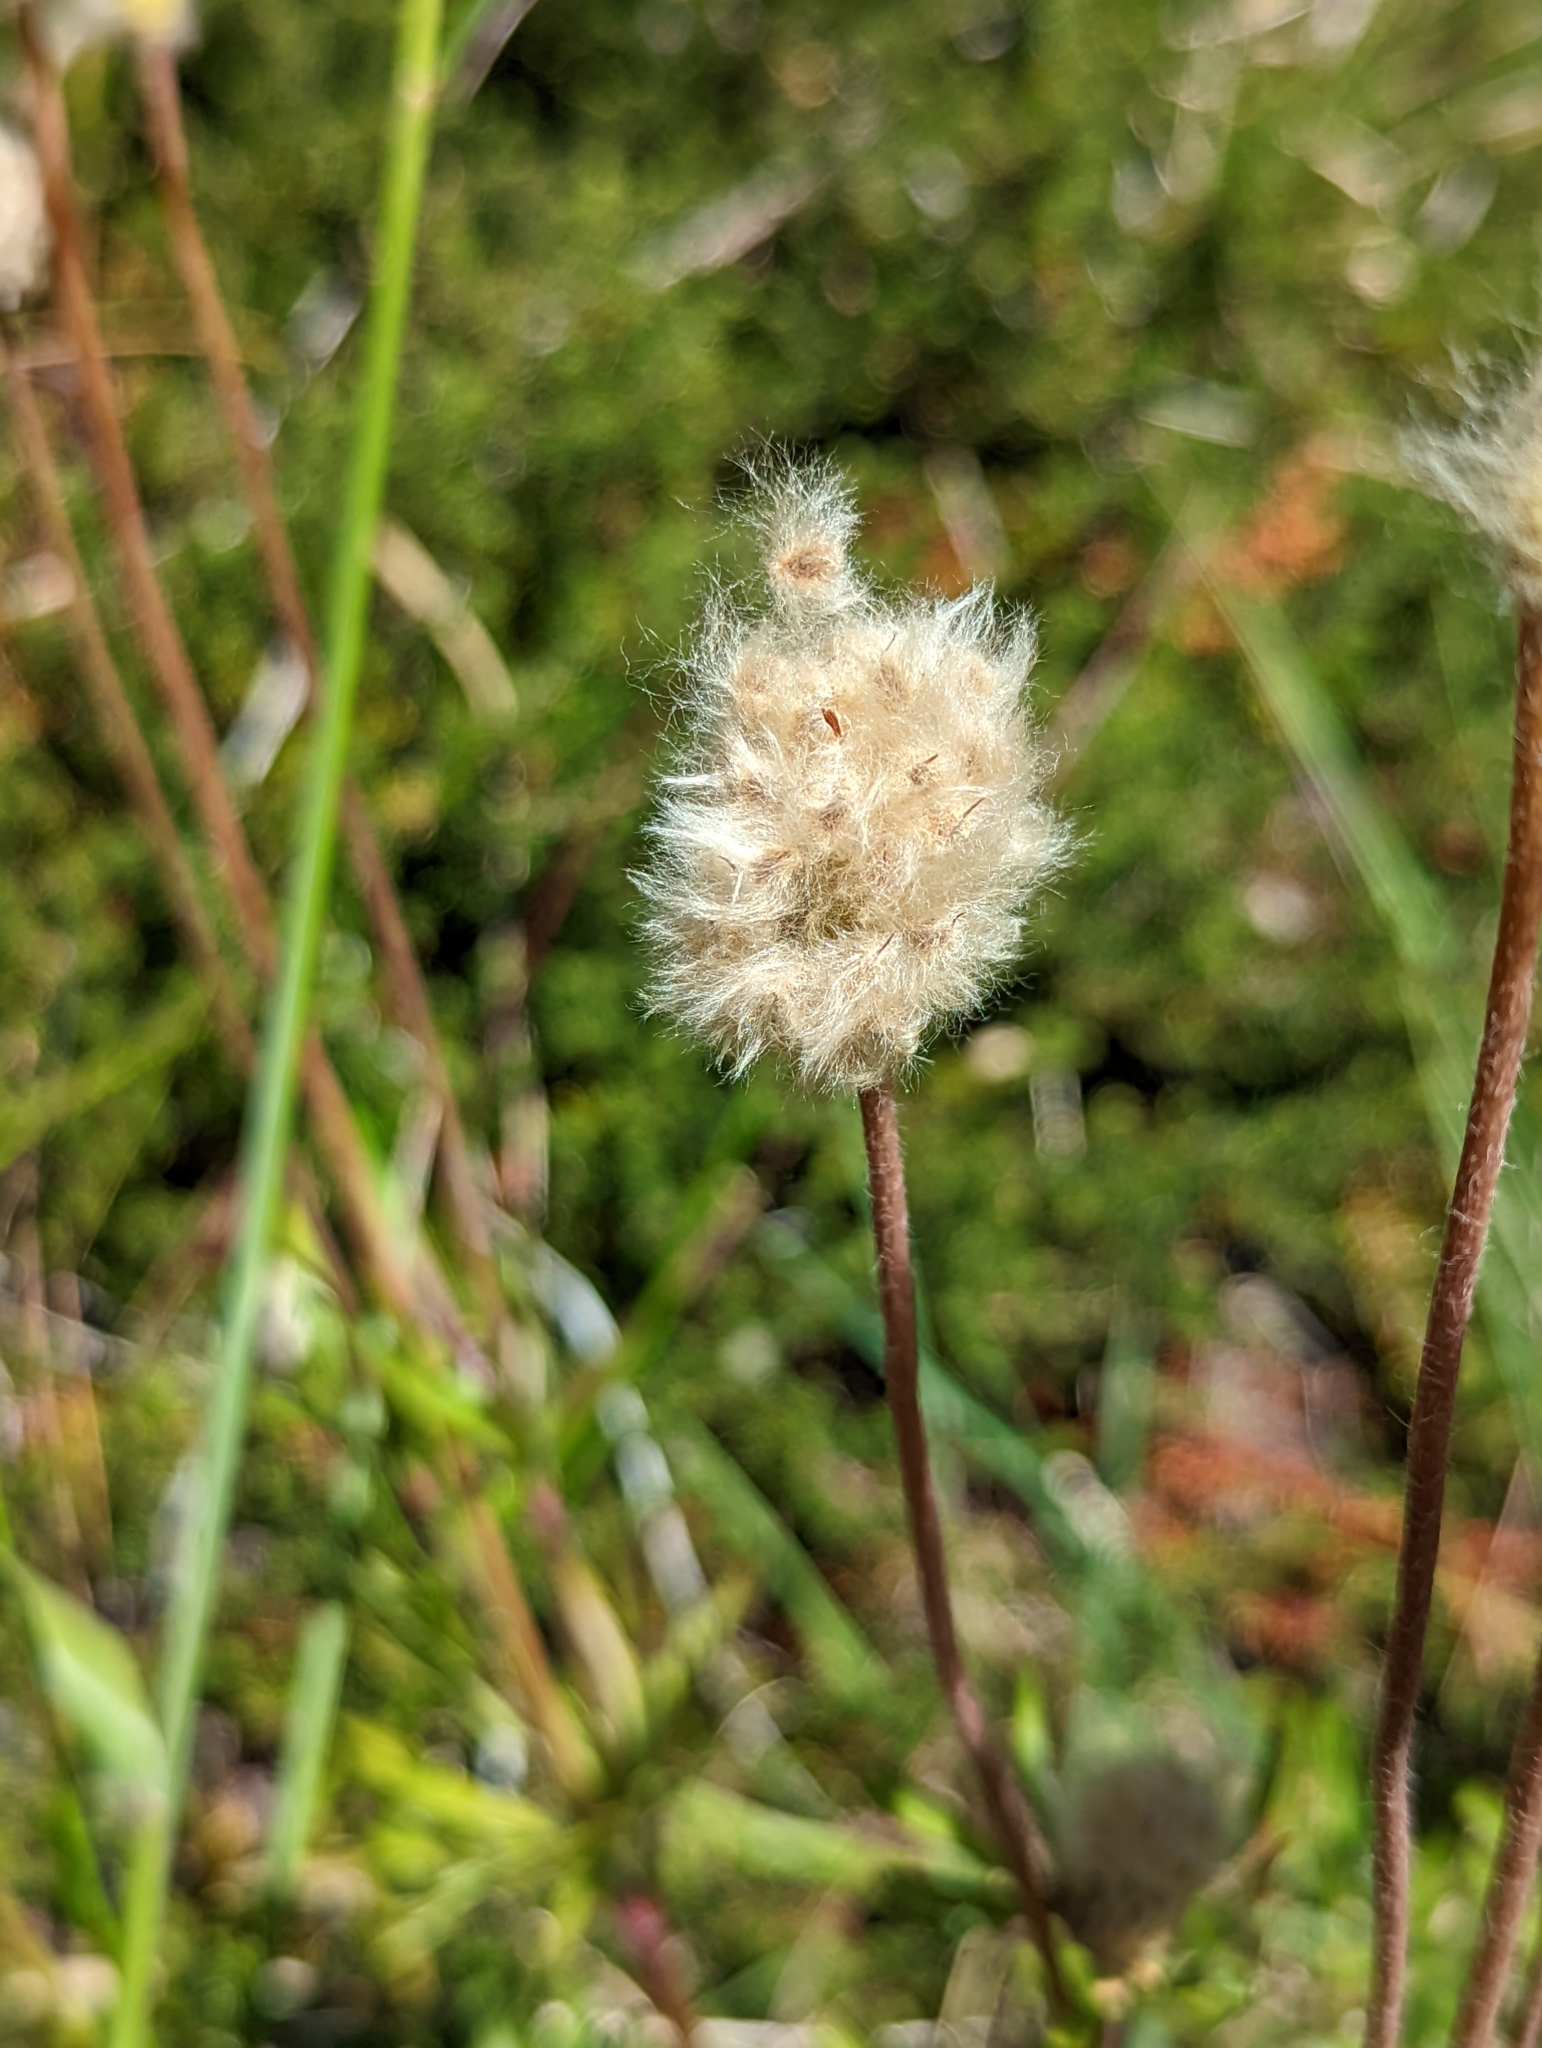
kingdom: Plantae
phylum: Tracheophyta
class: Magnoliopsida
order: Ranunculales
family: Ranunculaceae
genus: Anemone
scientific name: Anemone multifida
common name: Bird's-foot anemone
